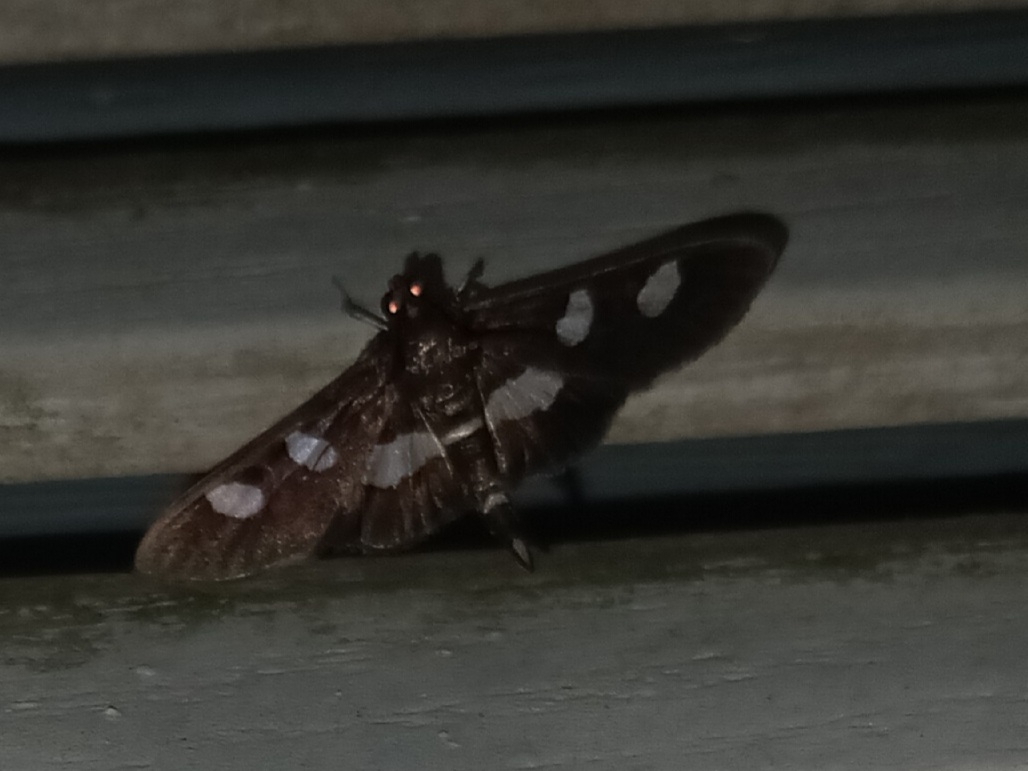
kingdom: Animalia
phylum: Arthropoda
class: Insecta
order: Lepidoptera
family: Crambidae
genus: Desmia
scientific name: Desmia
